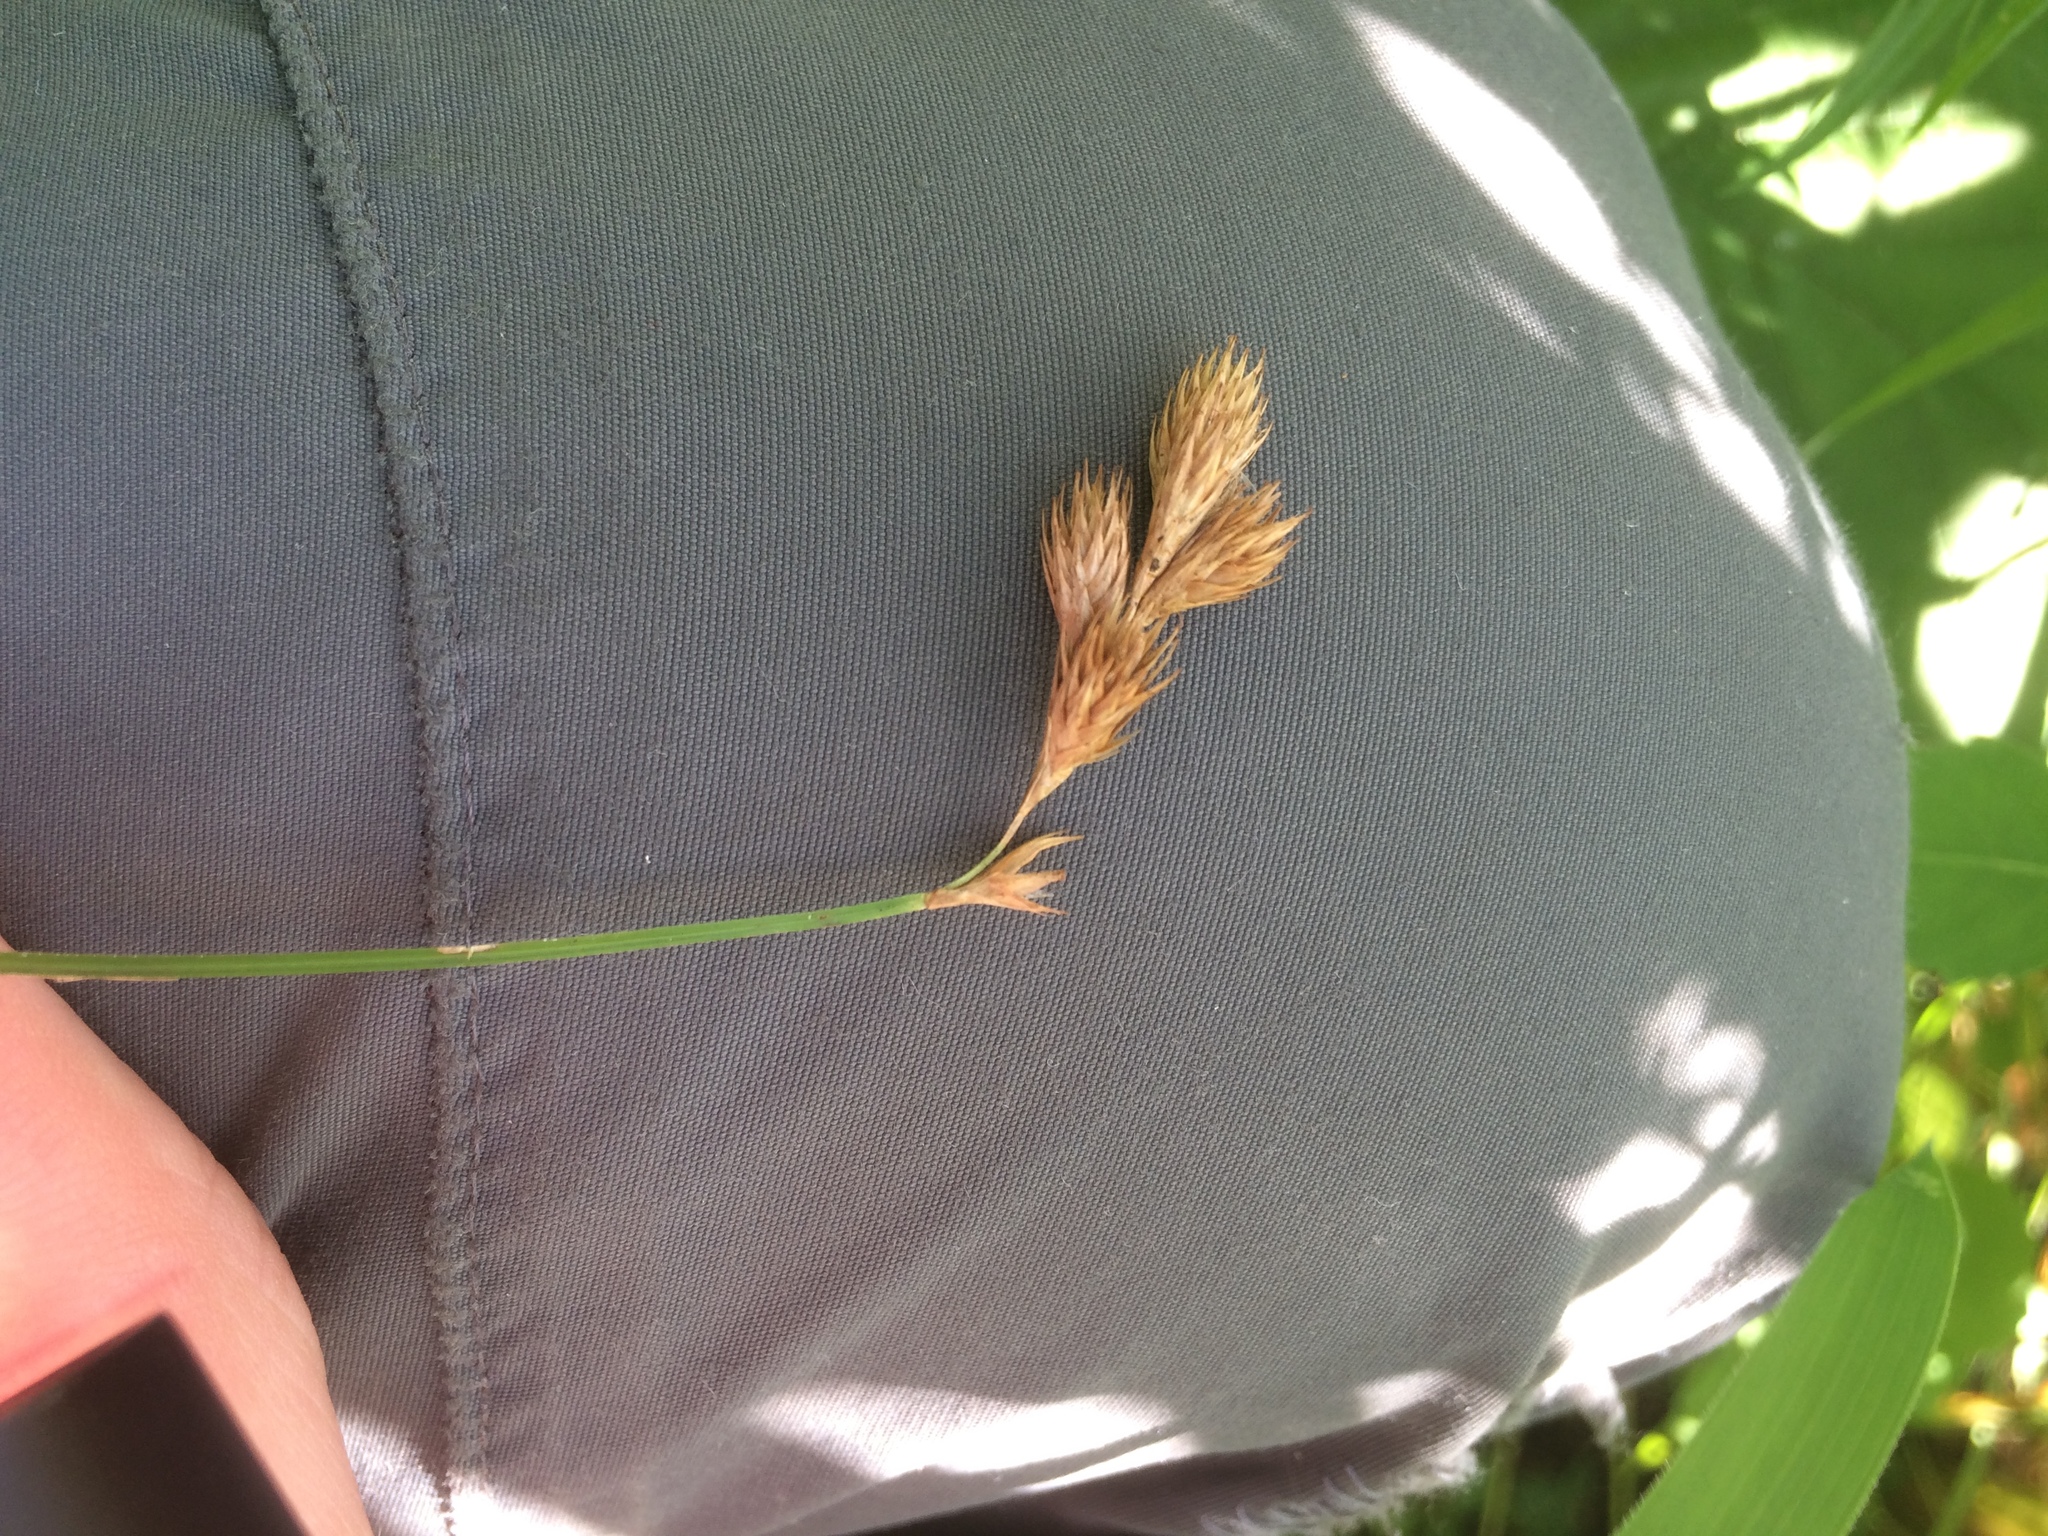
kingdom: Plantae
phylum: Tracheophyta
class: Liliopsida
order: Poales
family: Cyperaceae
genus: Carex
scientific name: Carex scoparia
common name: Broom sedge
